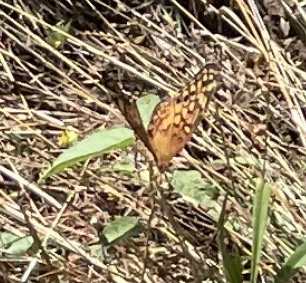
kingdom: Animalia
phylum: Arthropoda
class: Insecta
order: Lepidoptera
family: Nymphalidae
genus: Euptoieta
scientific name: Euptoieta claudia
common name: Variegated fritillary
